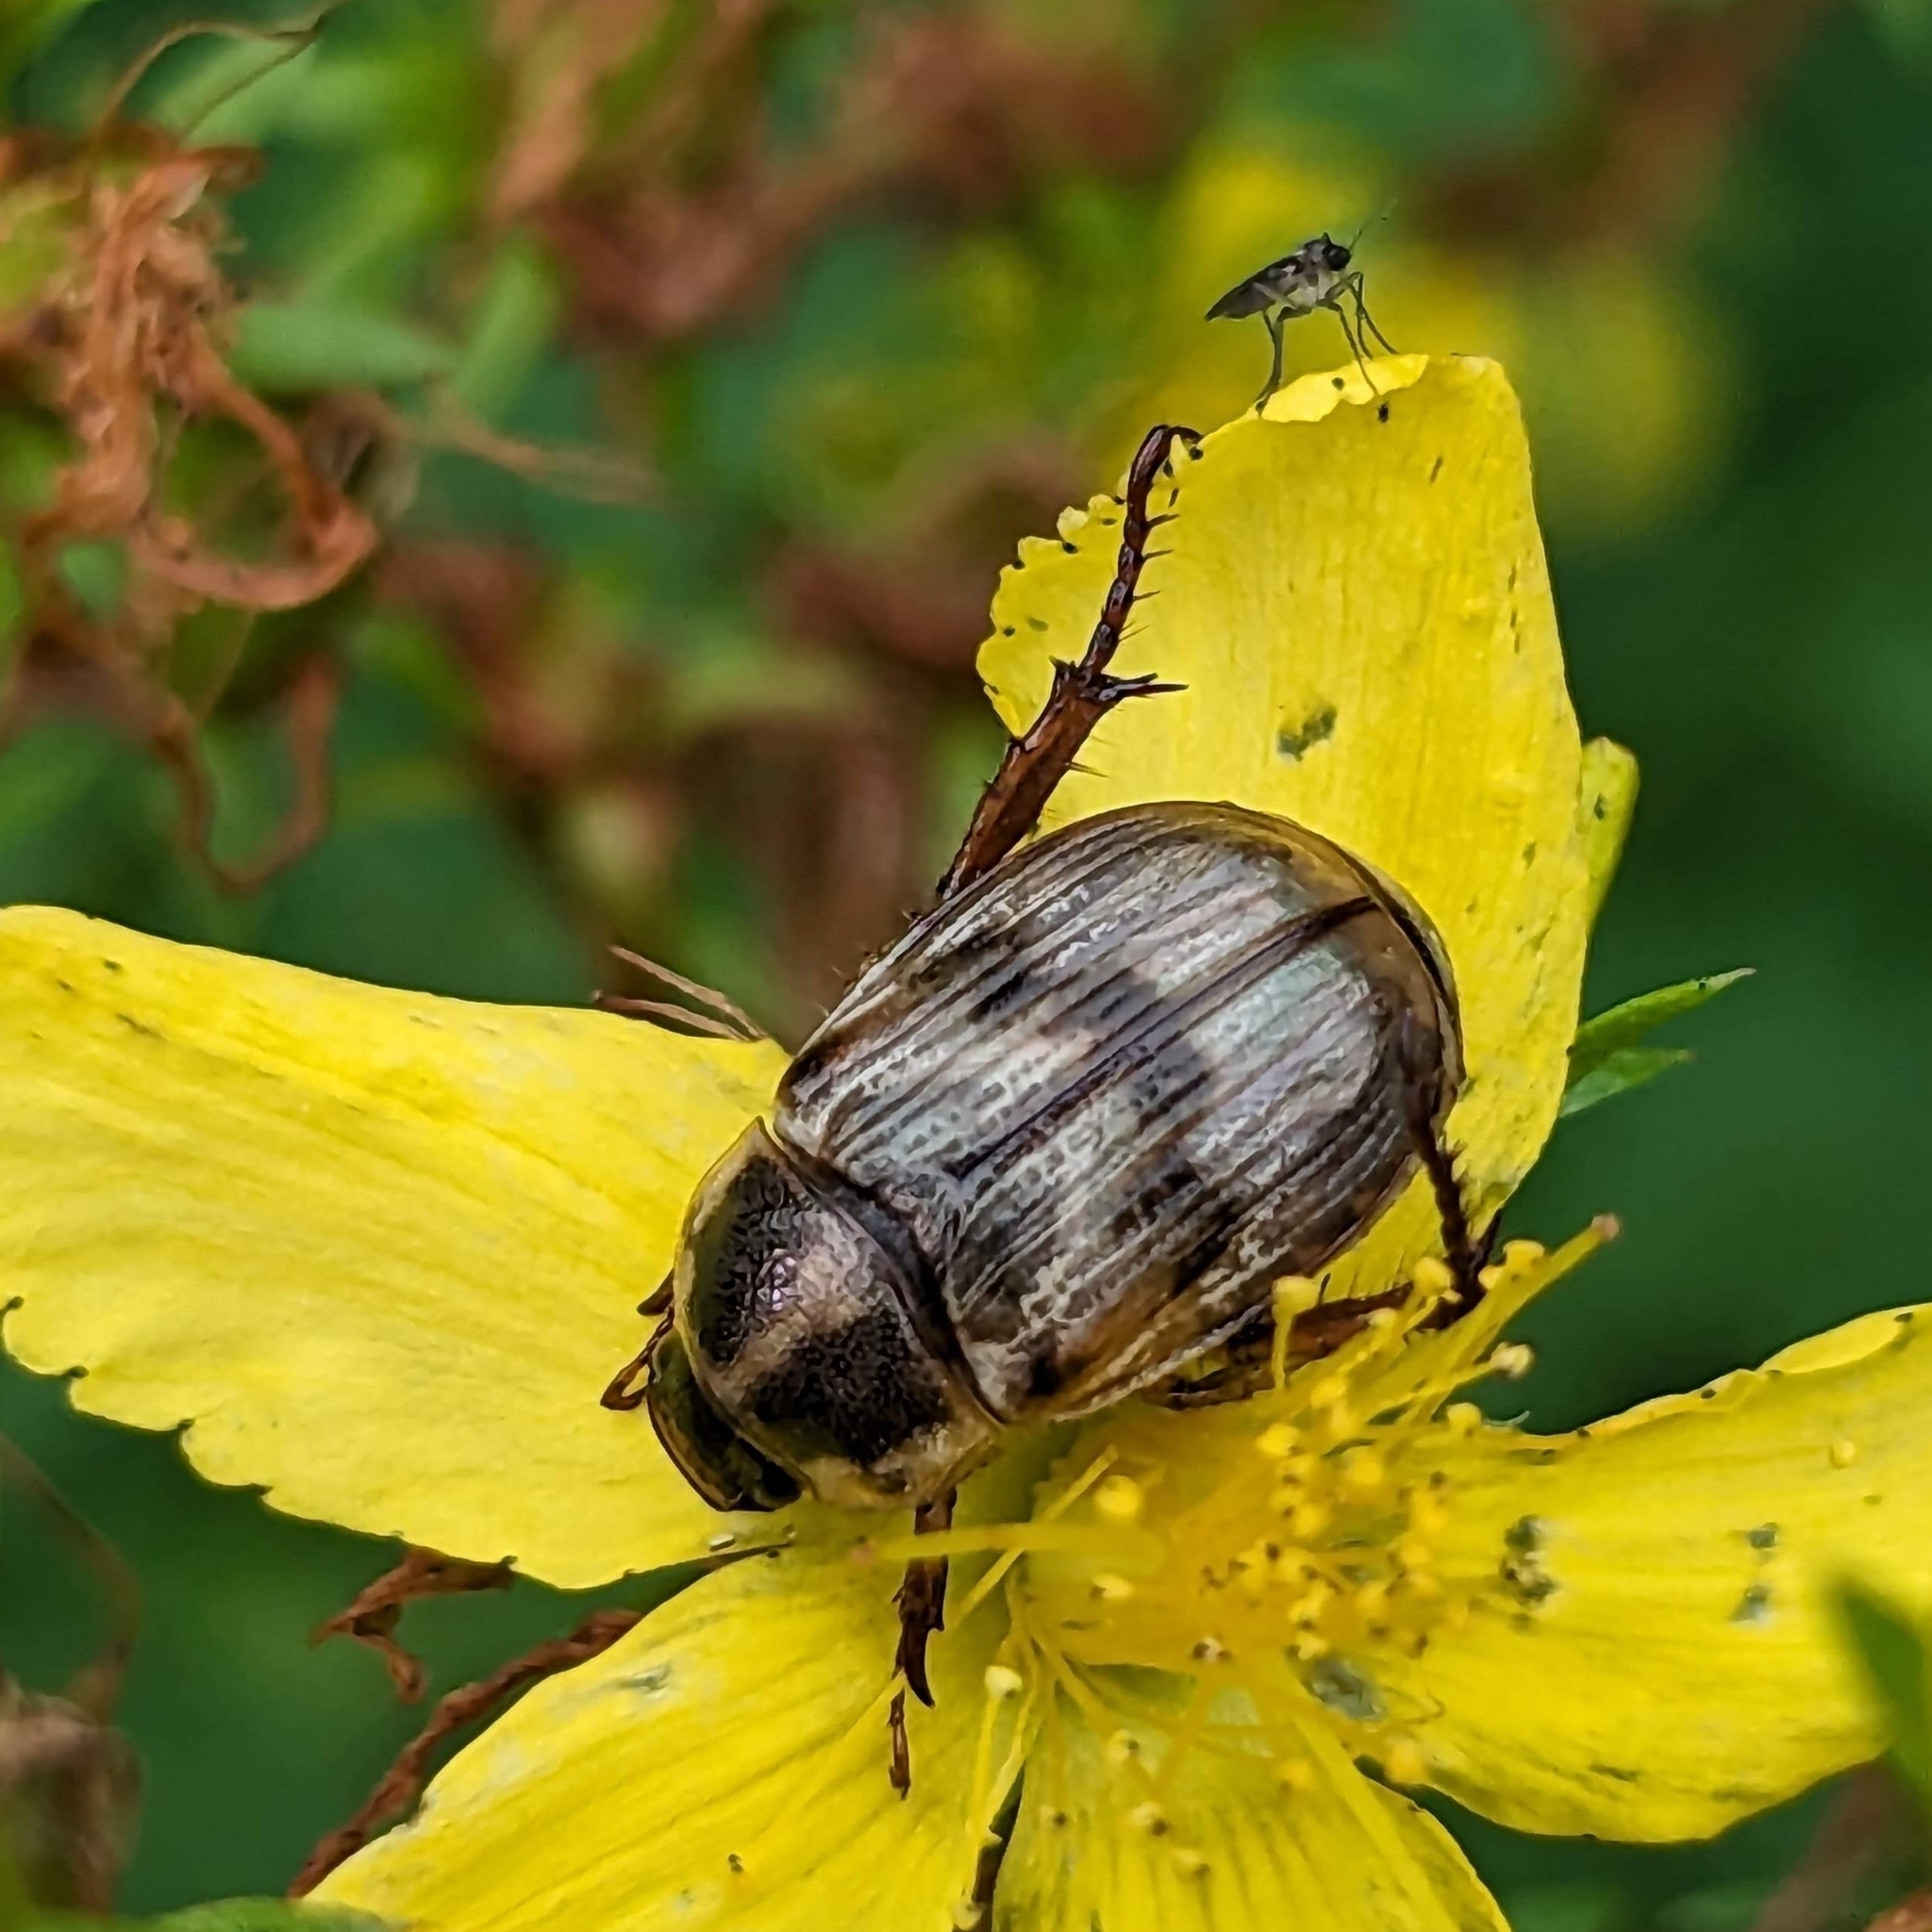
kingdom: Animalia
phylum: Arthropoda
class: Insecta
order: Coleoptera
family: Scarabaeidae
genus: Exomala
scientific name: Exomala orientalis
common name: Oriental beetle
